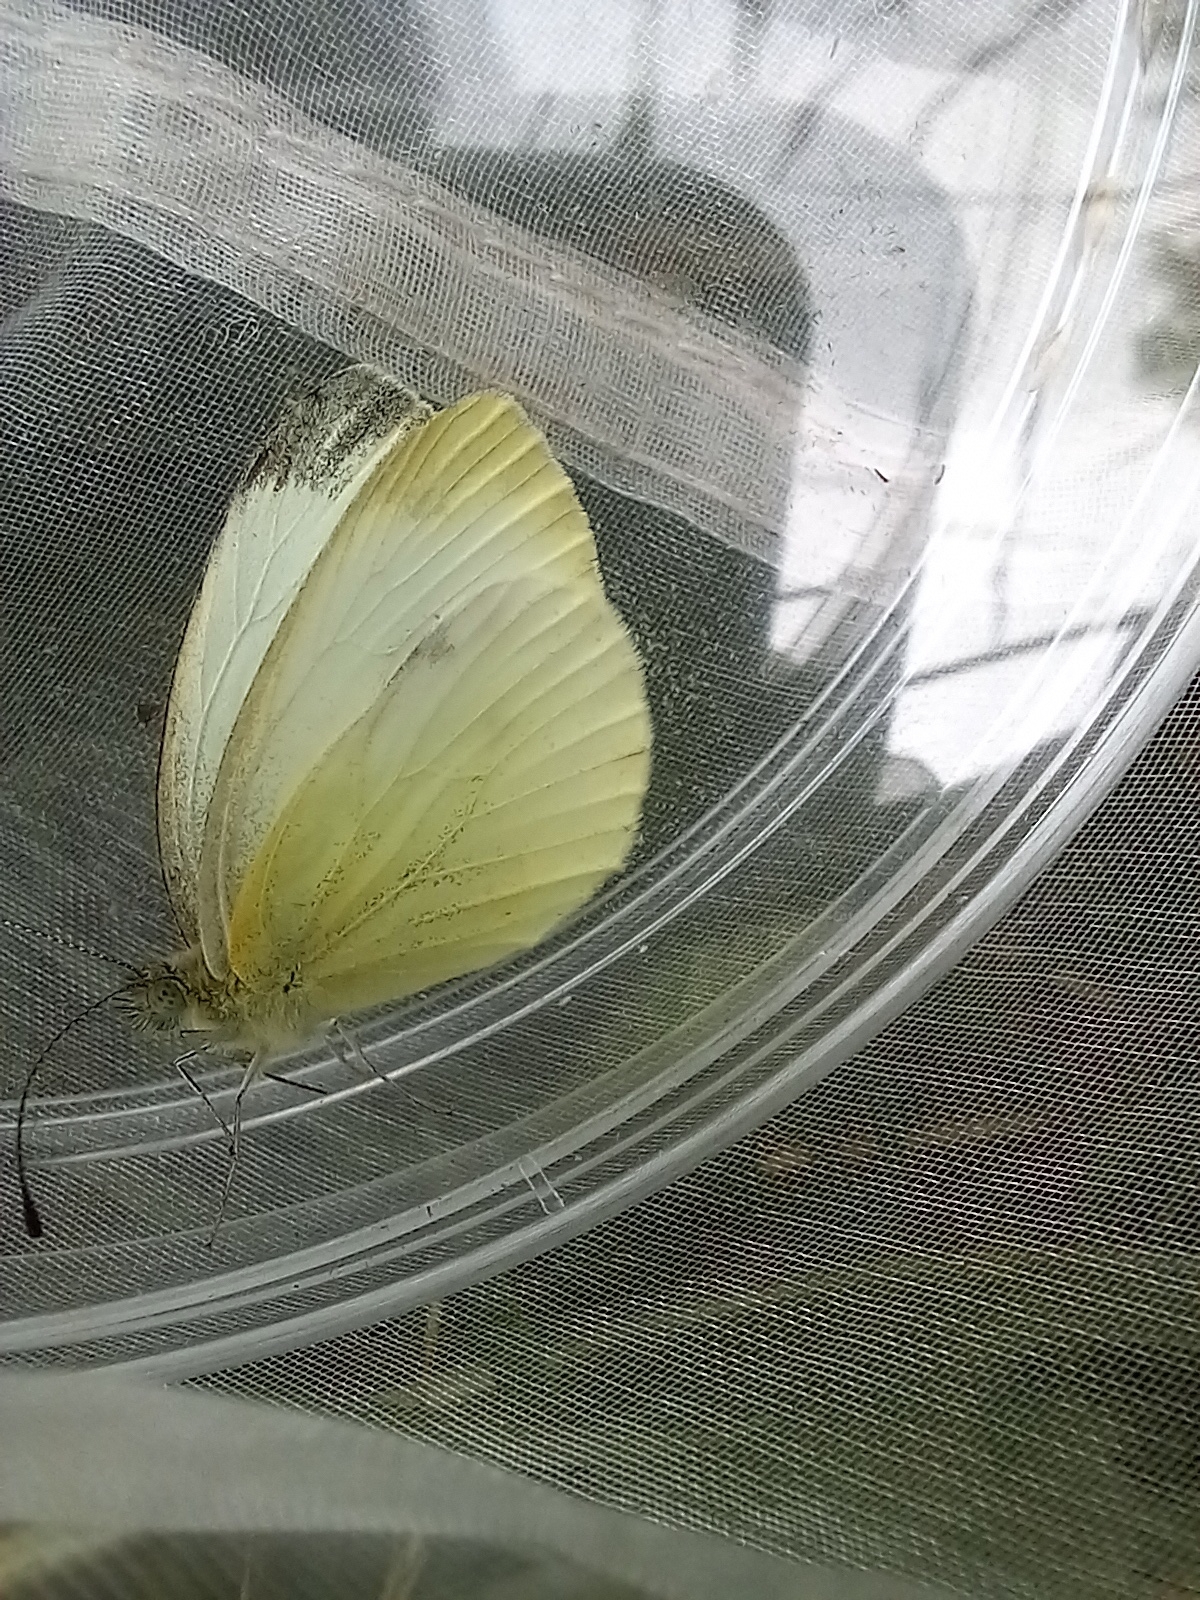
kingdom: Animalia
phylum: Arthropoda
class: Insecta
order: Lepidoptera
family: Pieridae
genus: Pieris
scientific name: Pieris napi
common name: Green-veined white
